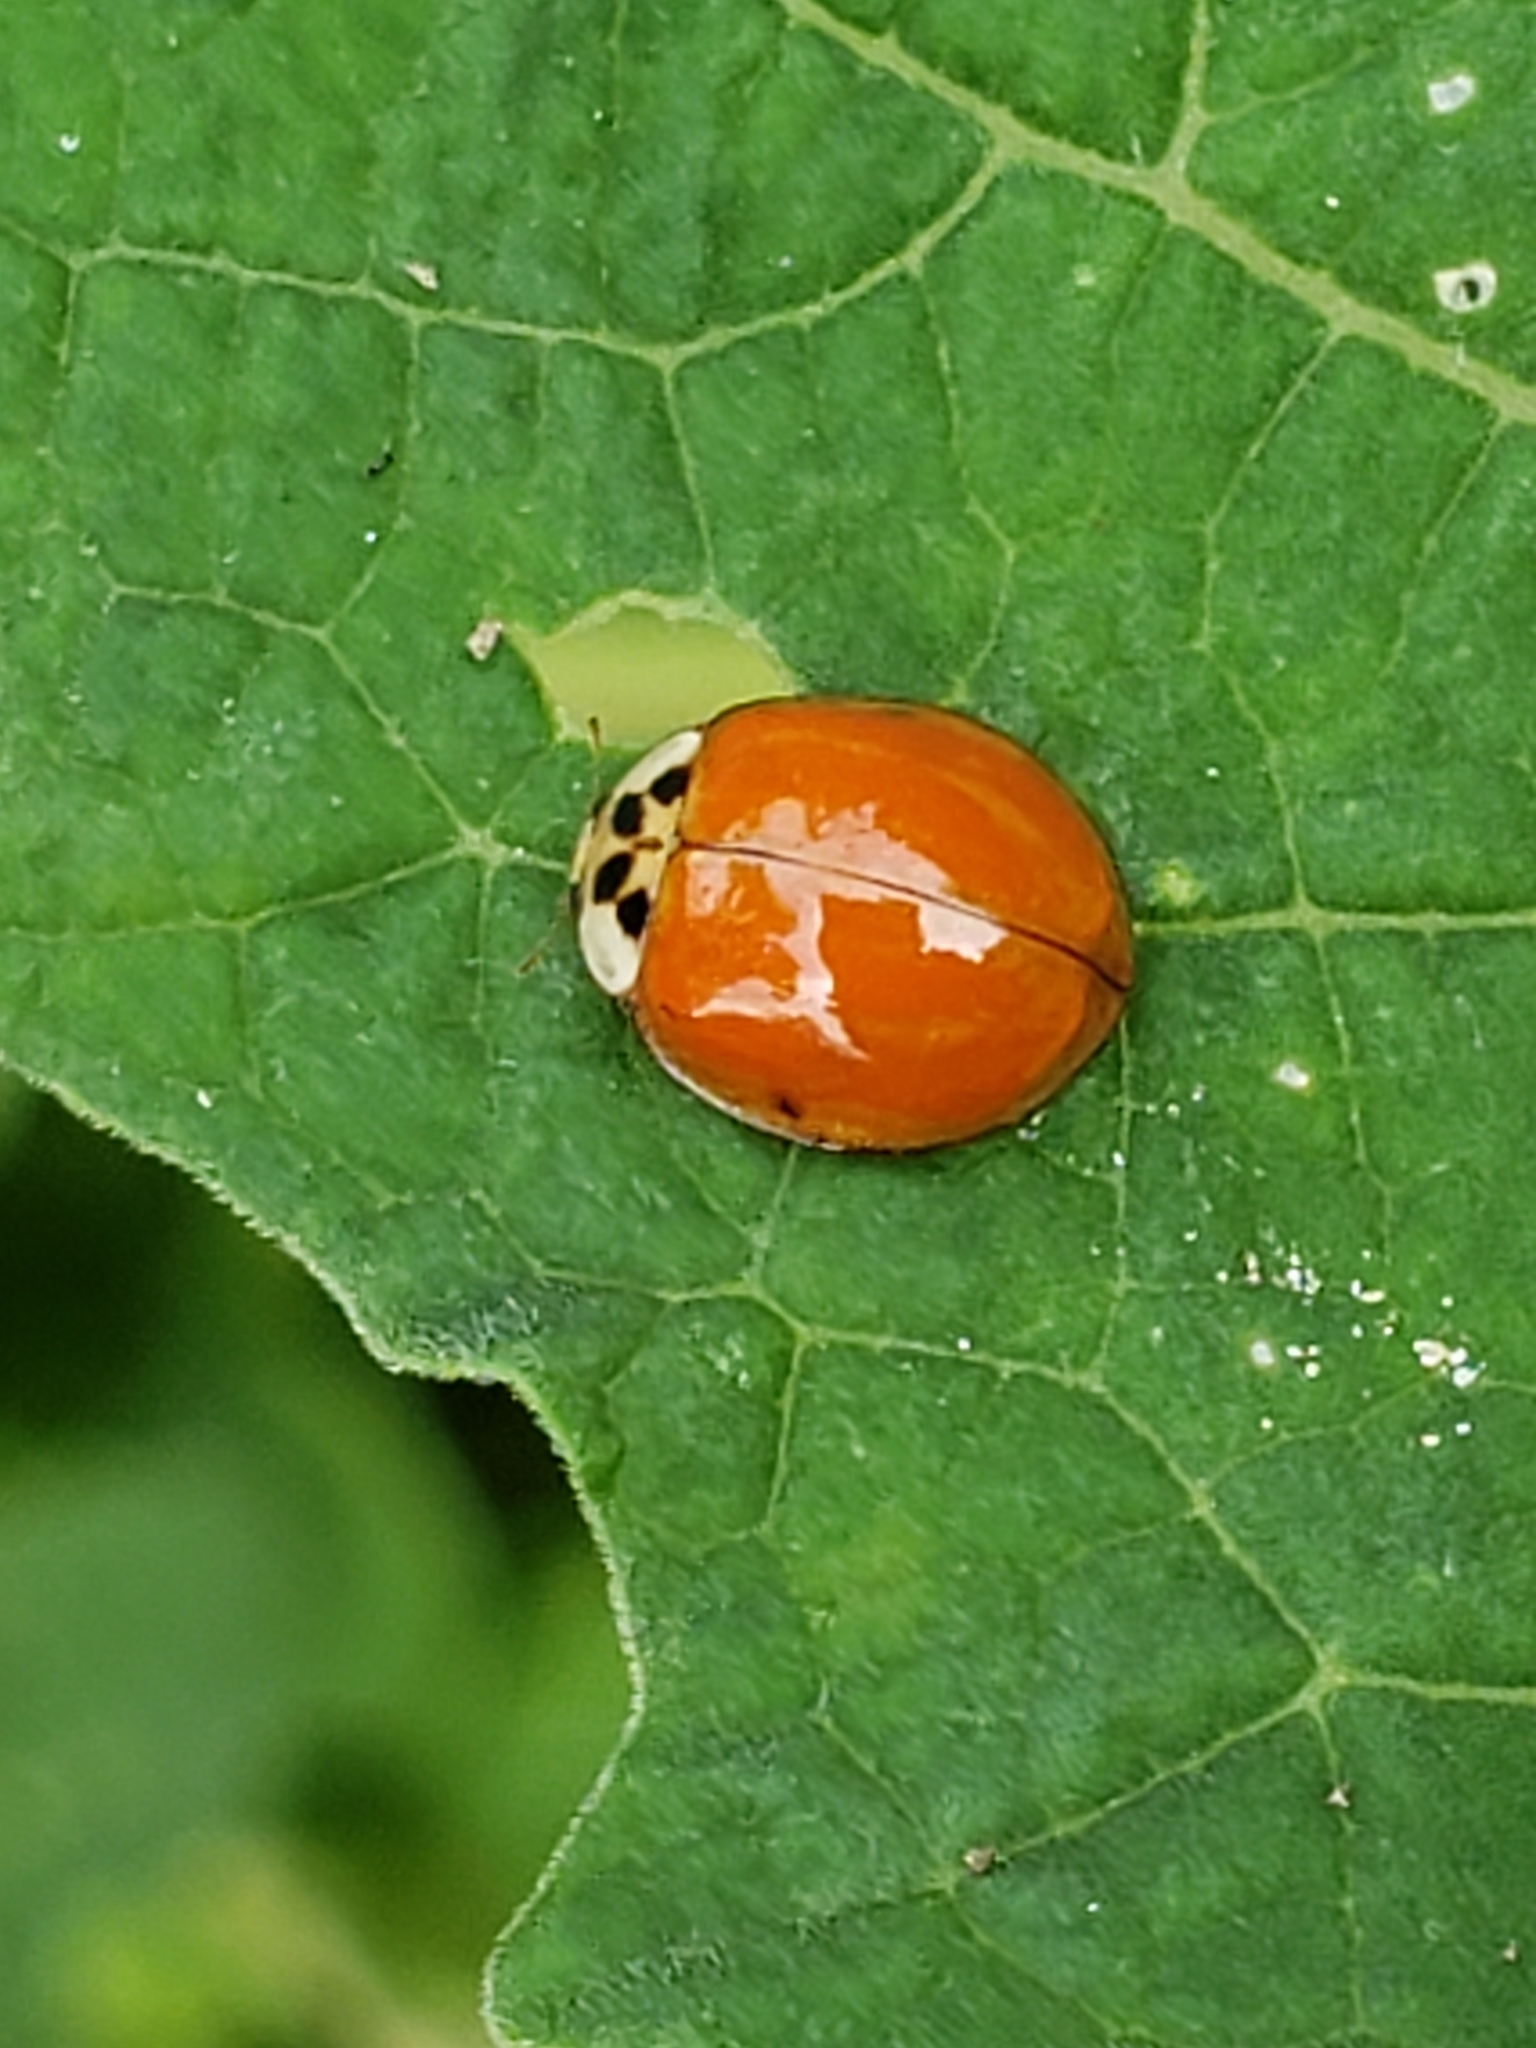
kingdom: Animalia
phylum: Arthropoda
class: Insecta
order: Coleoptera
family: Coccinellidae
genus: Harmonia
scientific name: Harmonia axyridis
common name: Harlequin ladybird
